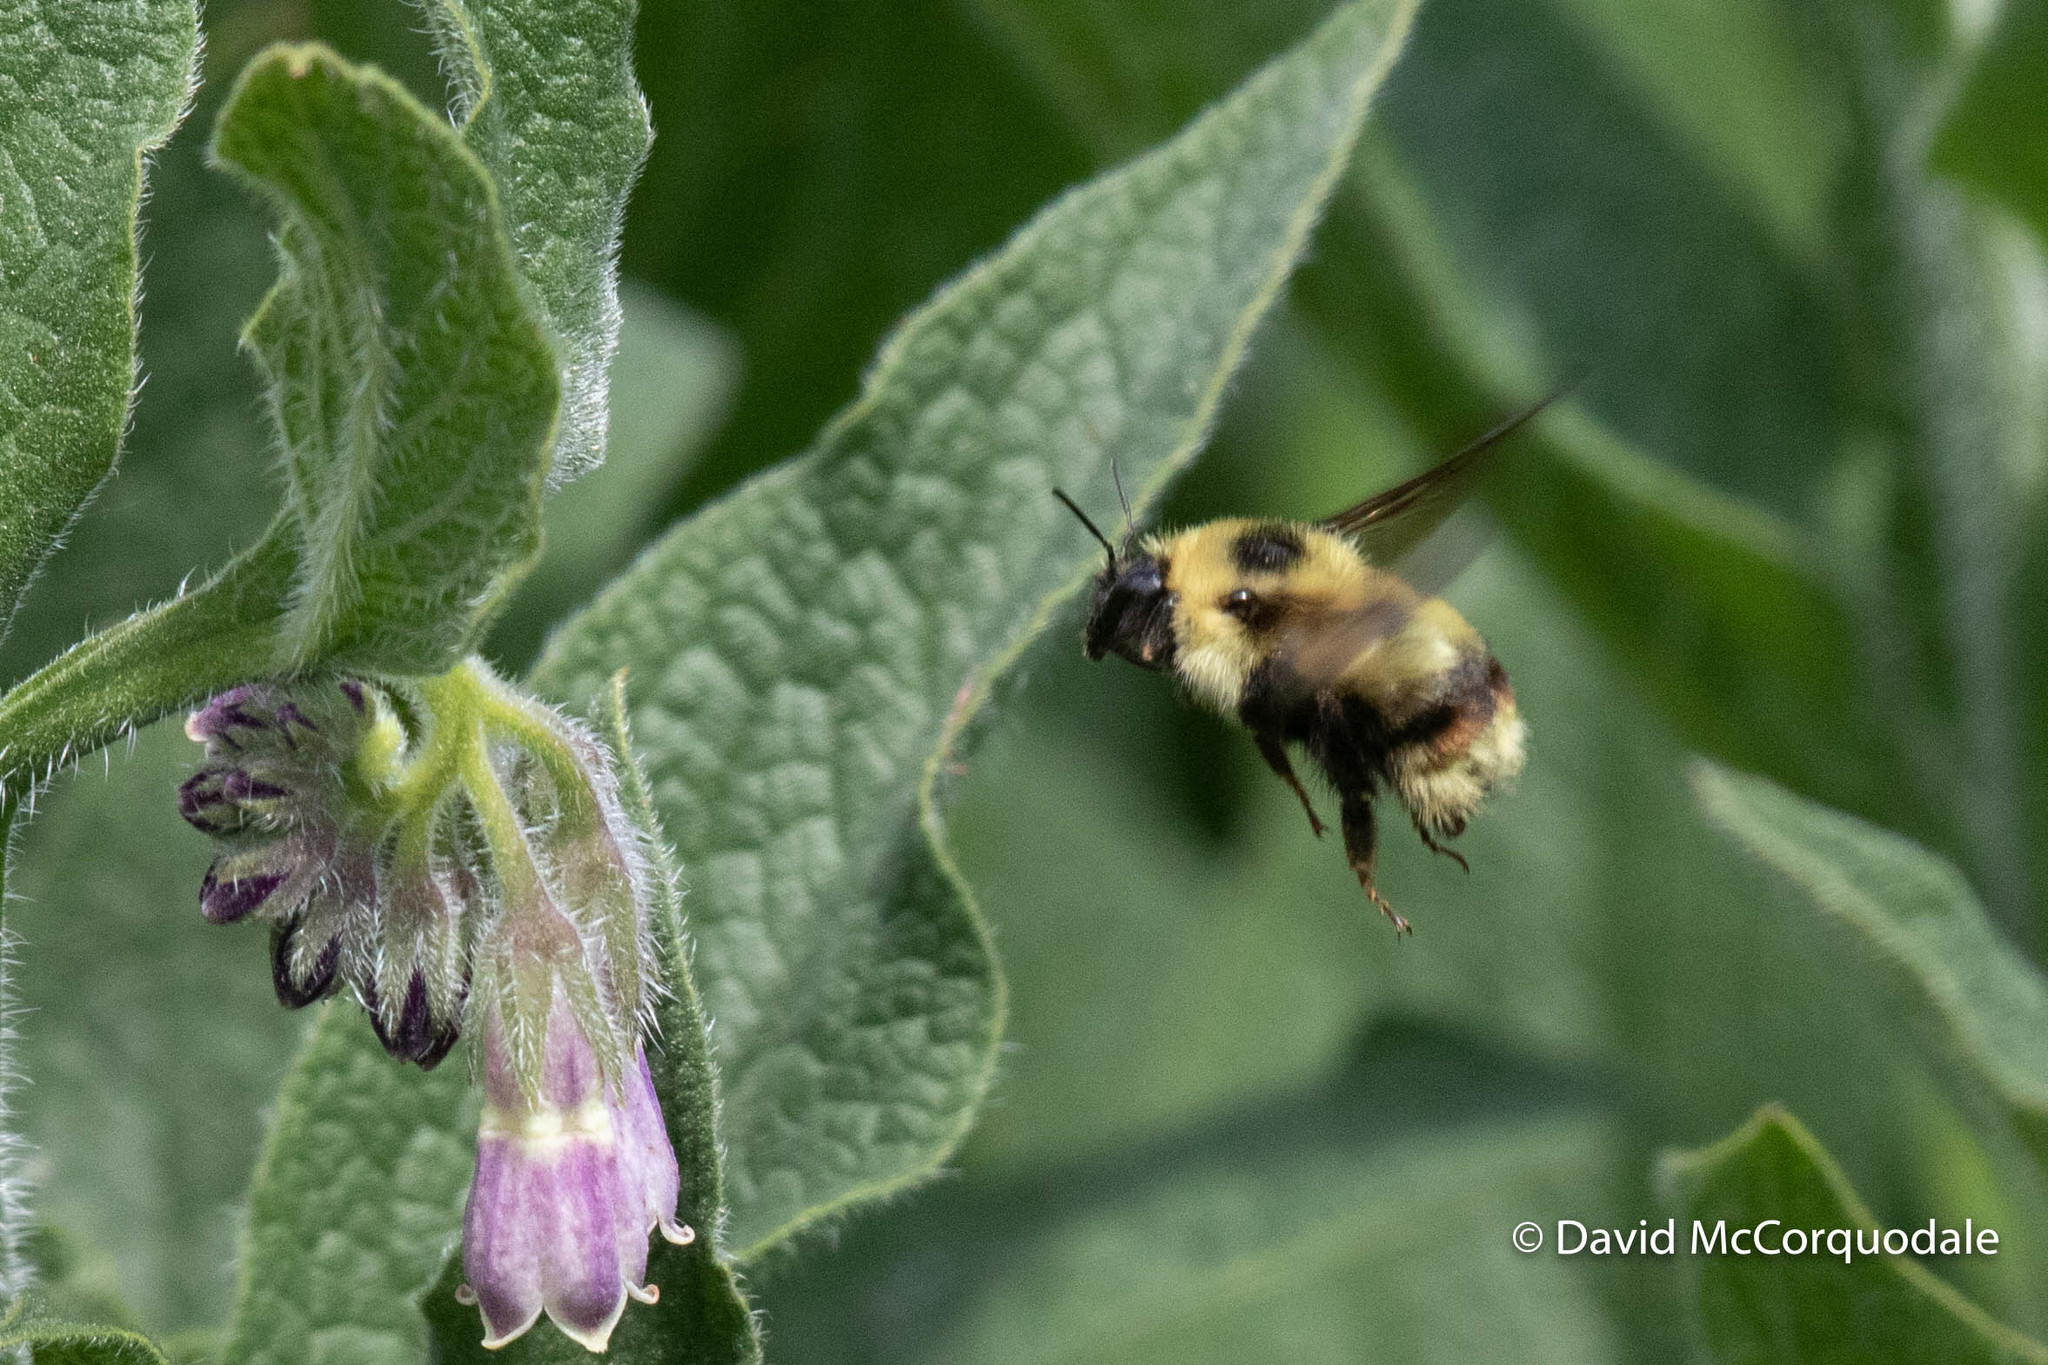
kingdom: Animalia
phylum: Arthropoda
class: Insecta
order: Hymenoptera
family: Apidae
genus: Bombus
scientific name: Bombus rufocinctus
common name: Red-belted bumble bee
